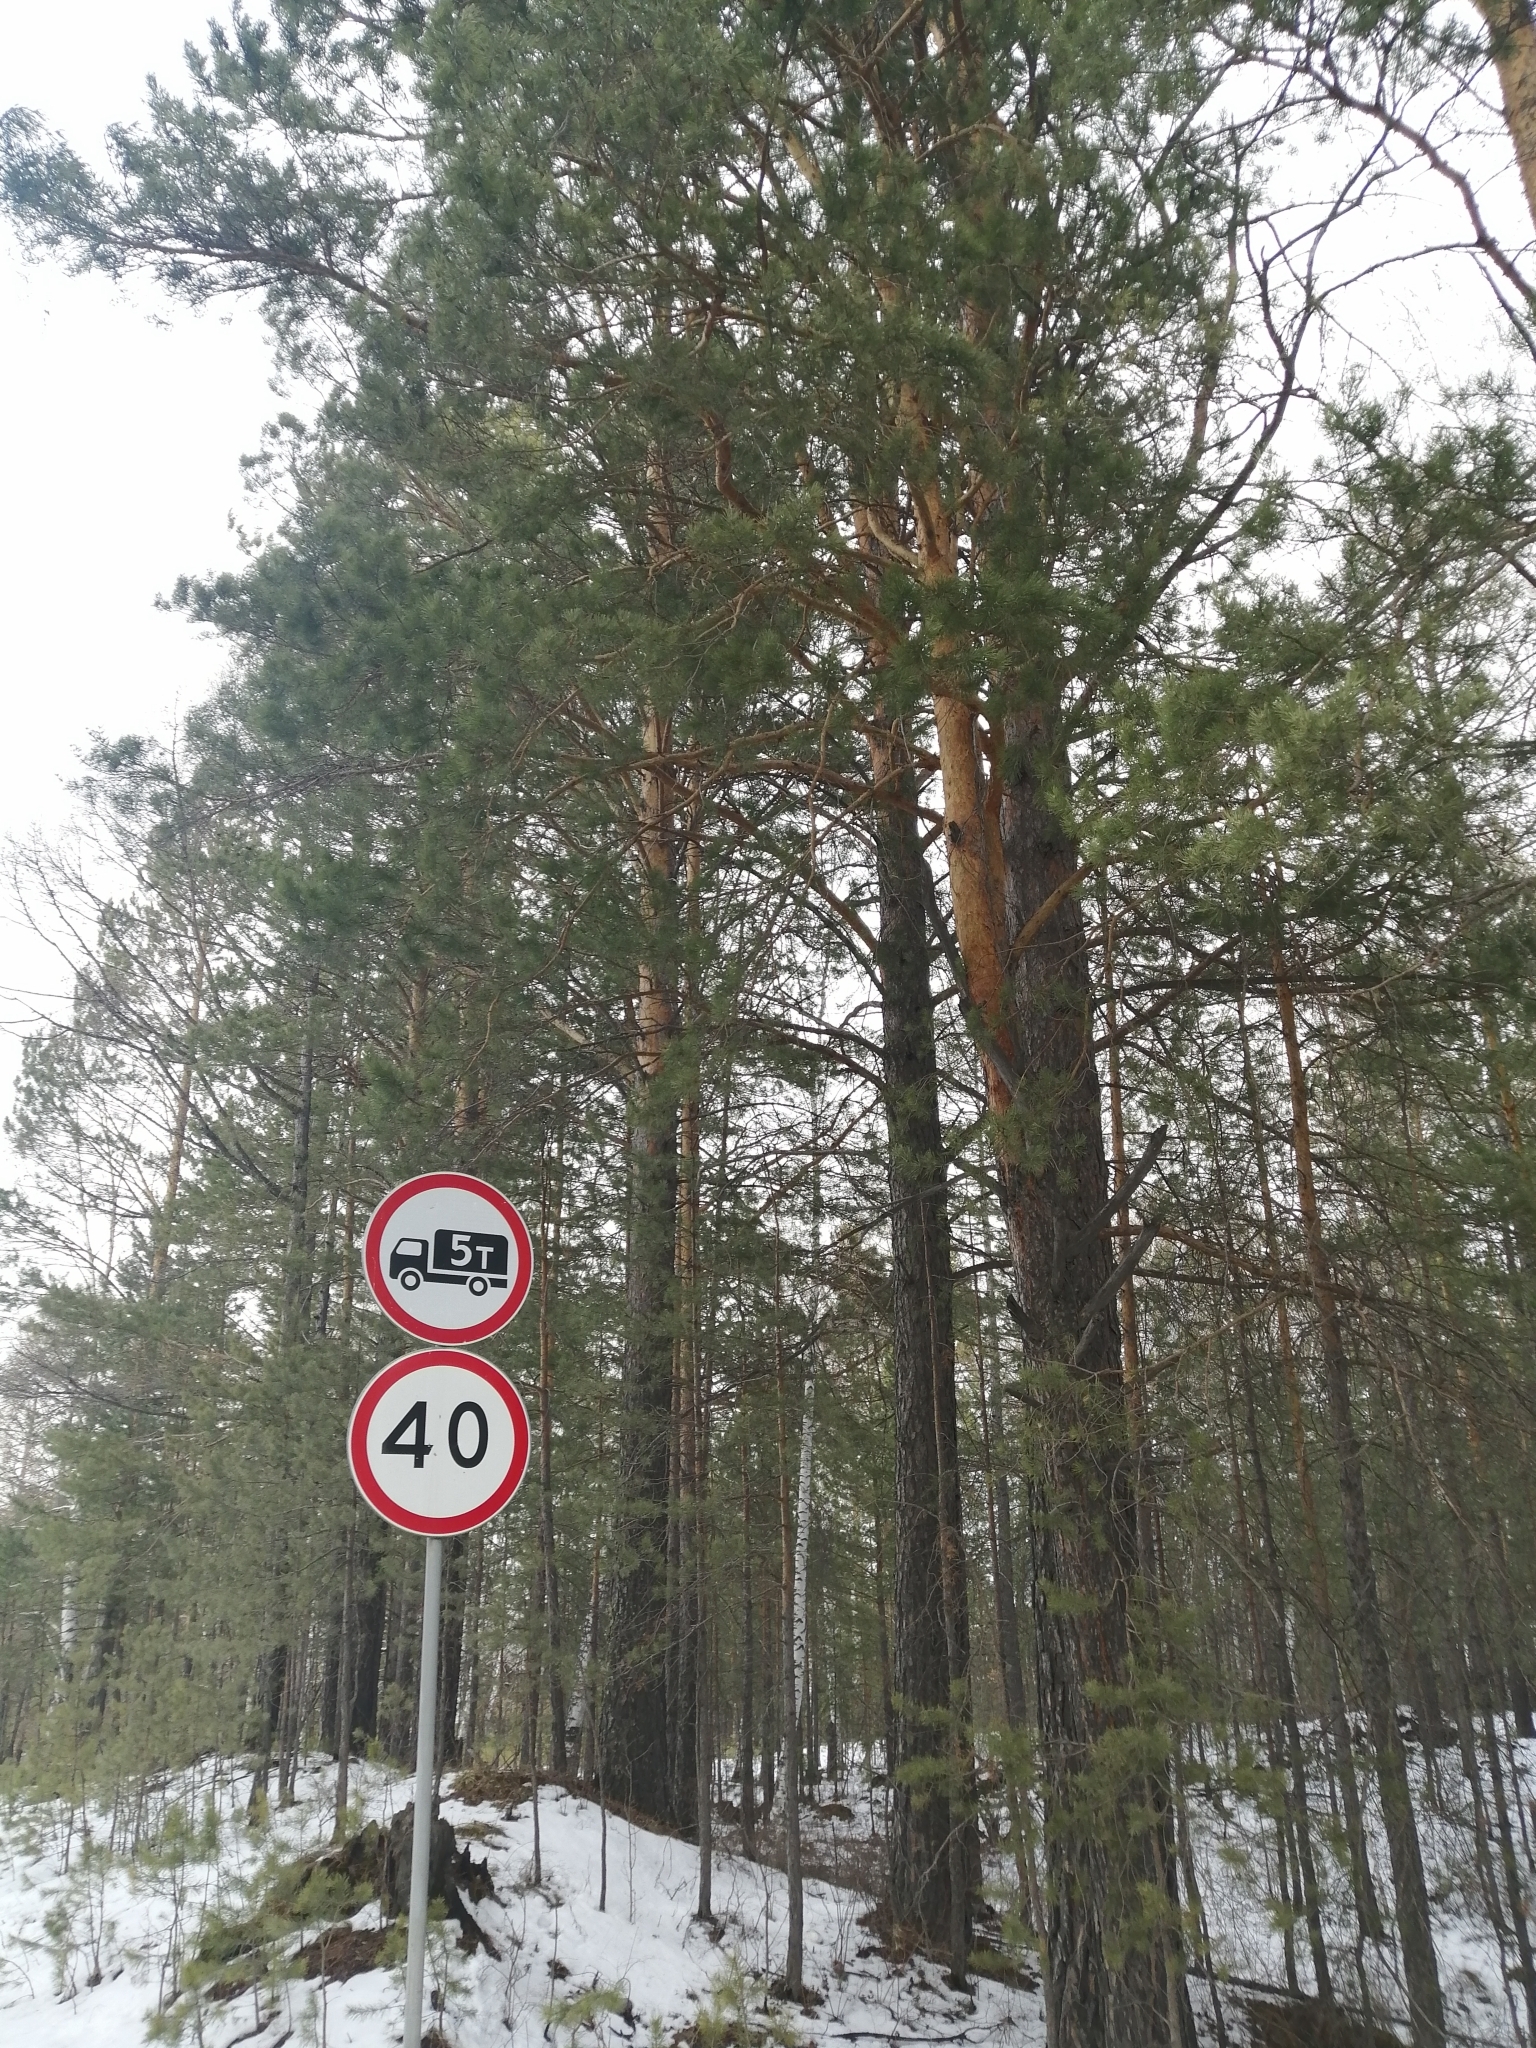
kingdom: Plantae
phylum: Tracheophyta
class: Pinopsida
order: Pinales
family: Pinaceae
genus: Pinus
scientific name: Pinus sylvestris
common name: Scots pine
